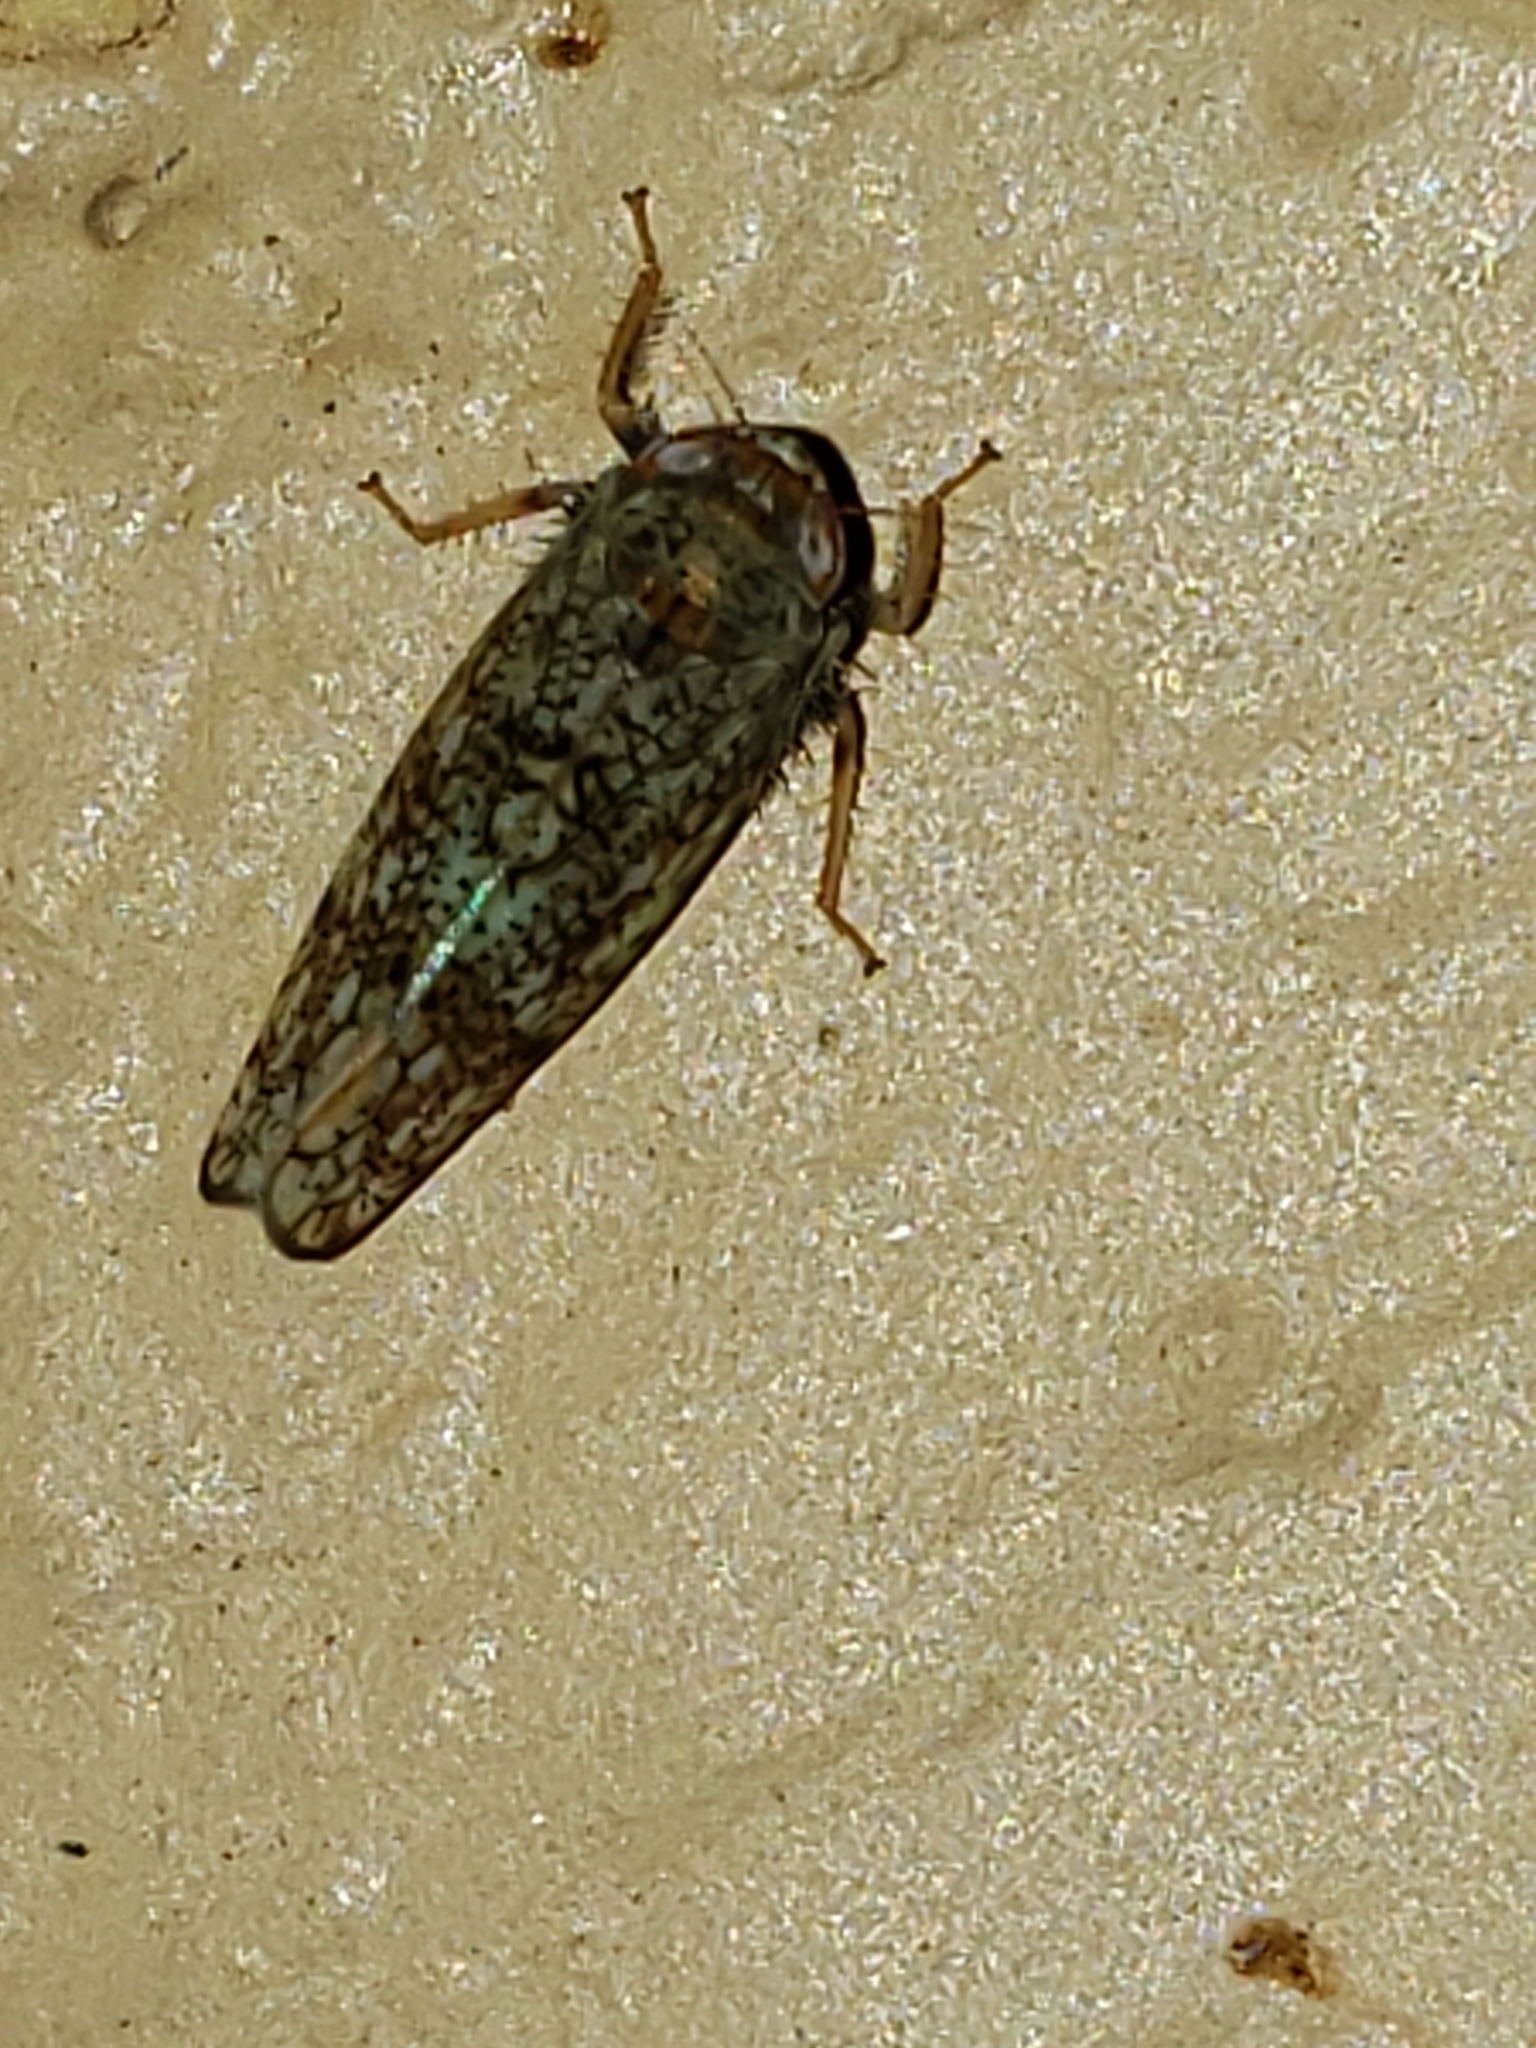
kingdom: Animalia
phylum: Arthropoda
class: Insecta
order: Hemiptera
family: Cicadellidae
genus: Orientus
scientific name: Orientus ishidae
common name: Japanese leafhopper
